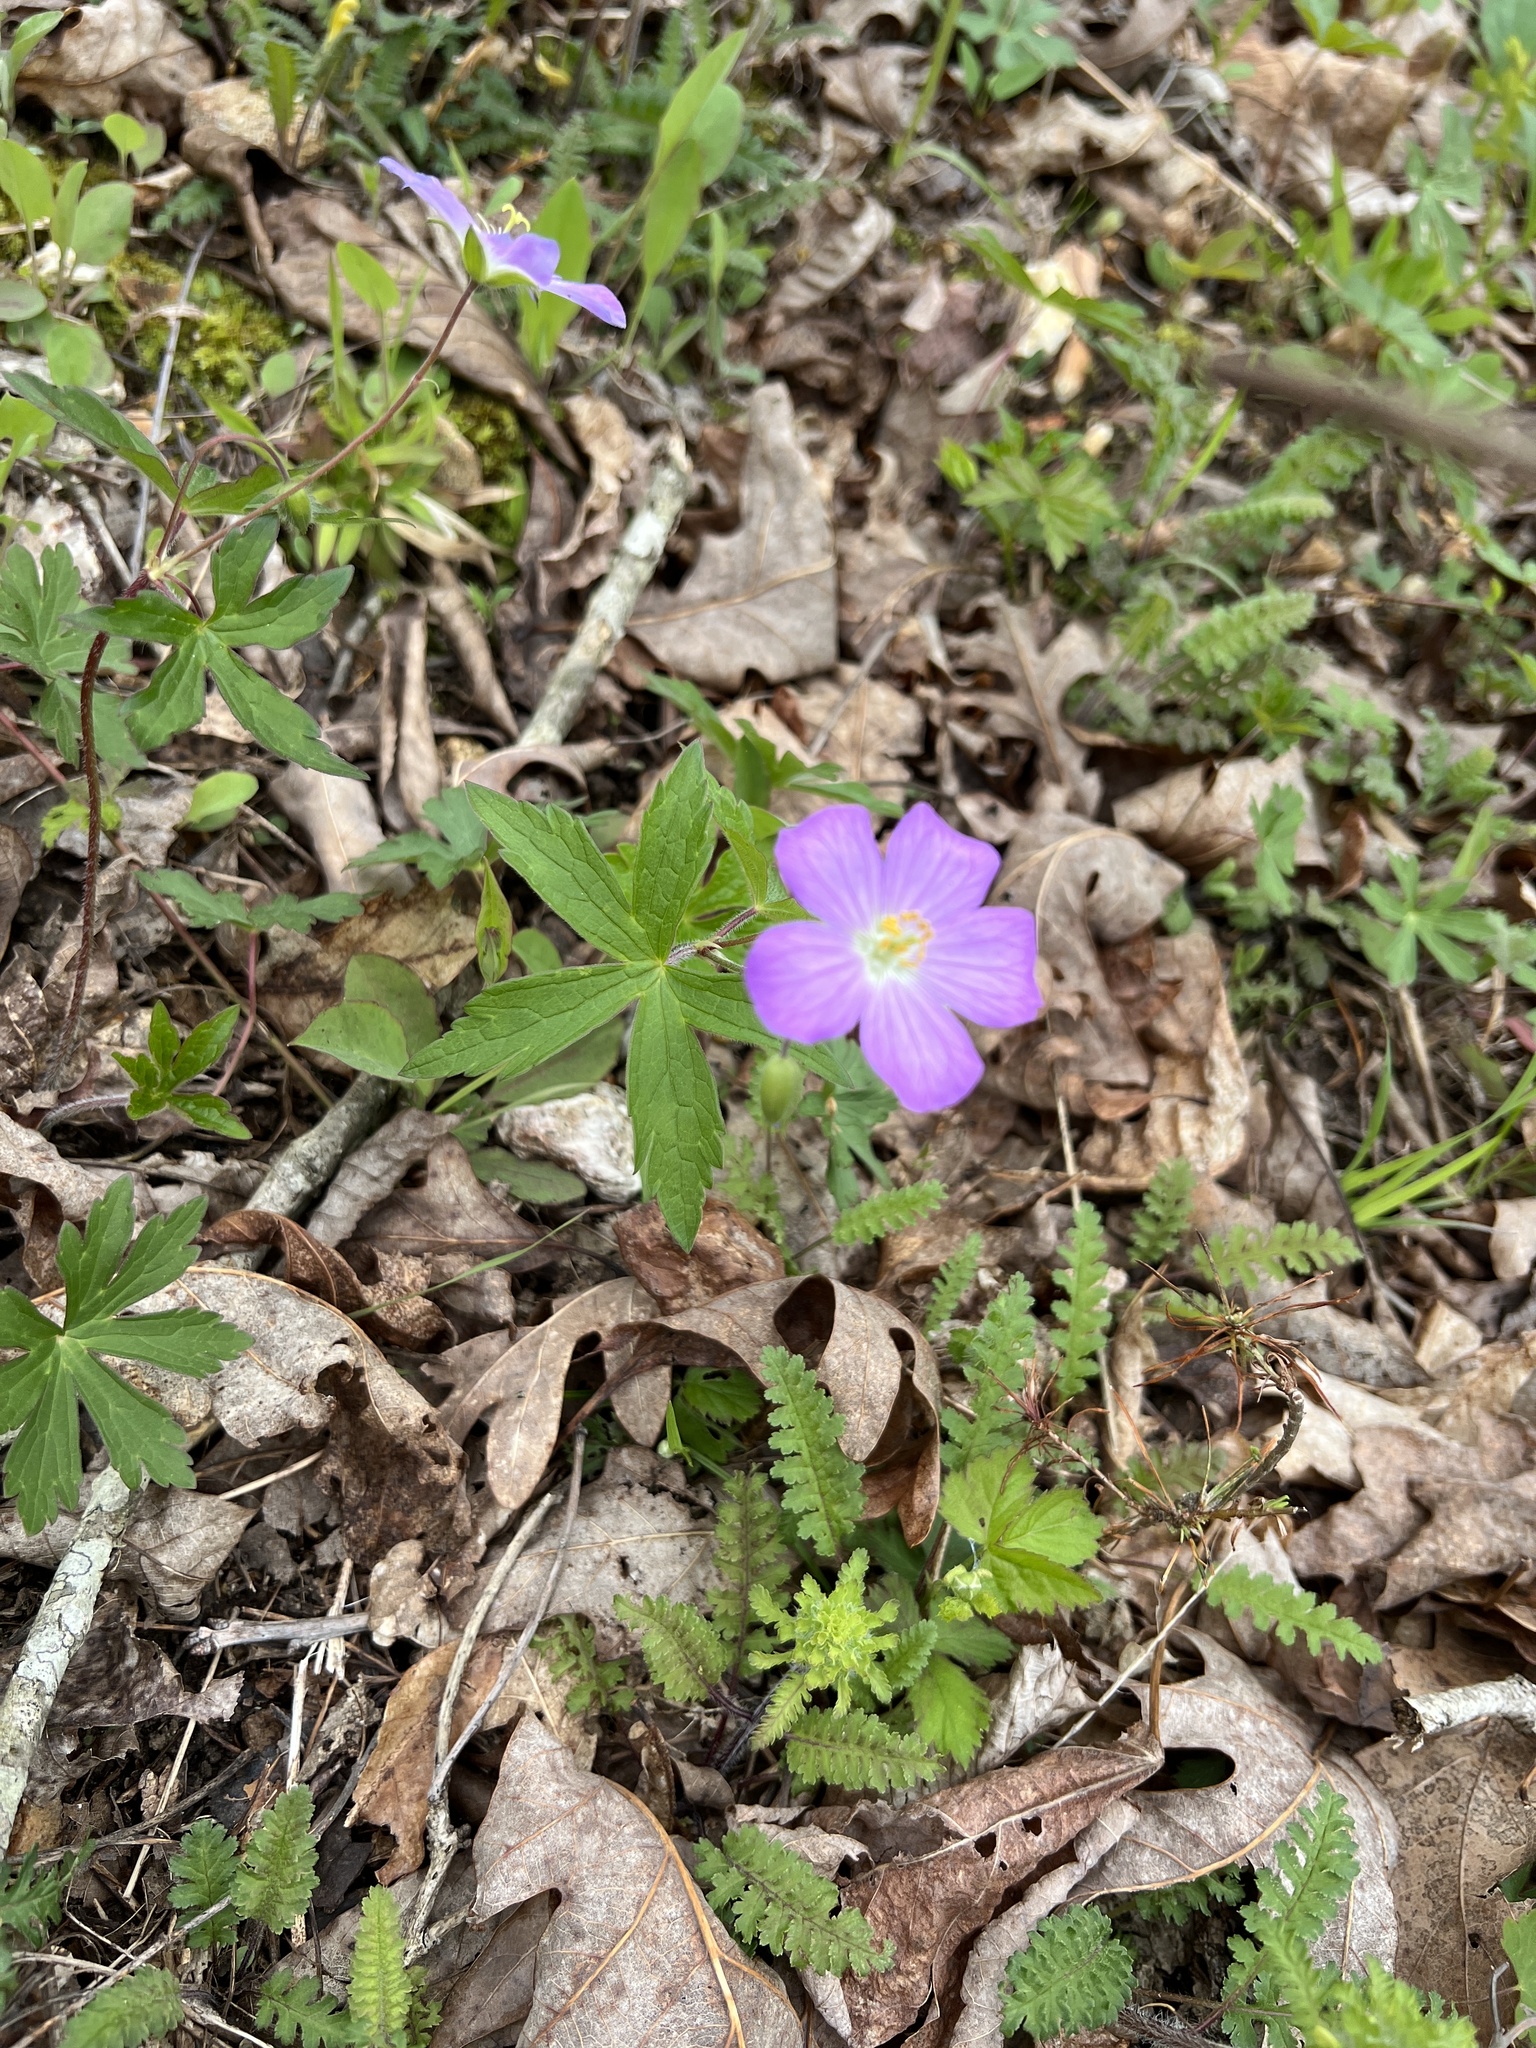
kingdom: Plantae
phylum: Tracheophyta
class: Magnoliopsida
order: Geraniales
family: Geraniaceae
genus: Geranium
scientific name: Geranium maculatum
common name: Spotted geranium
